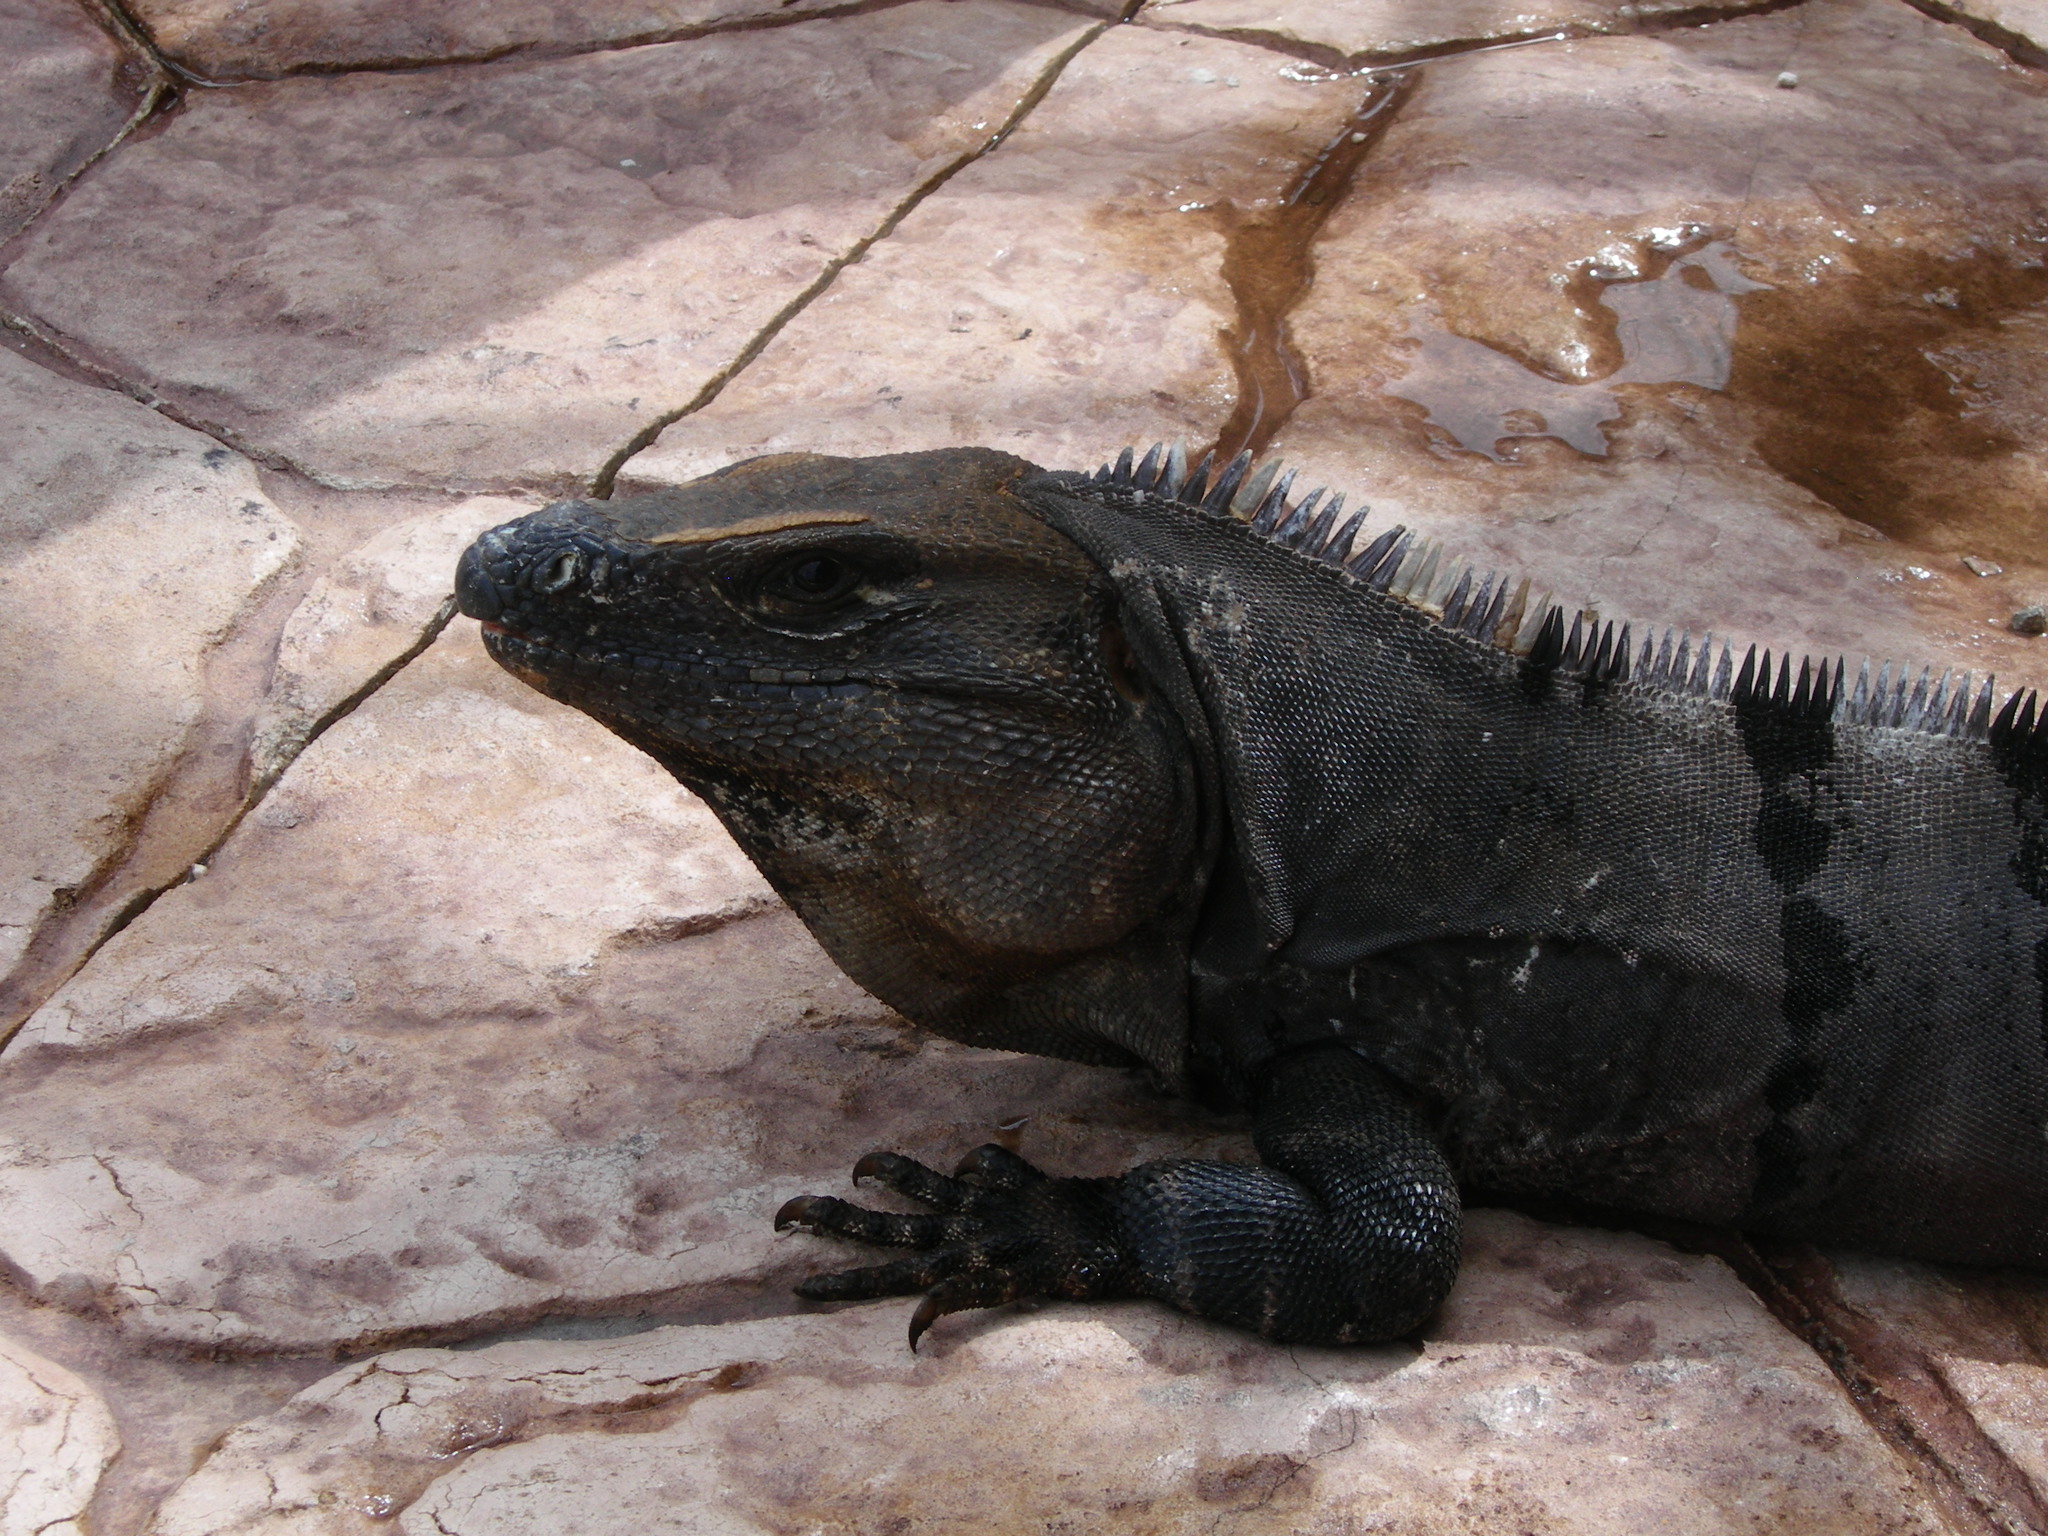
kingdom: Animalia
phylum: Chordata
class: Squamata
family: Iguanidae
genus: Ctenosaura
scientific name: Ctenosaura similis
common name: Black spiny-tailed iguana
